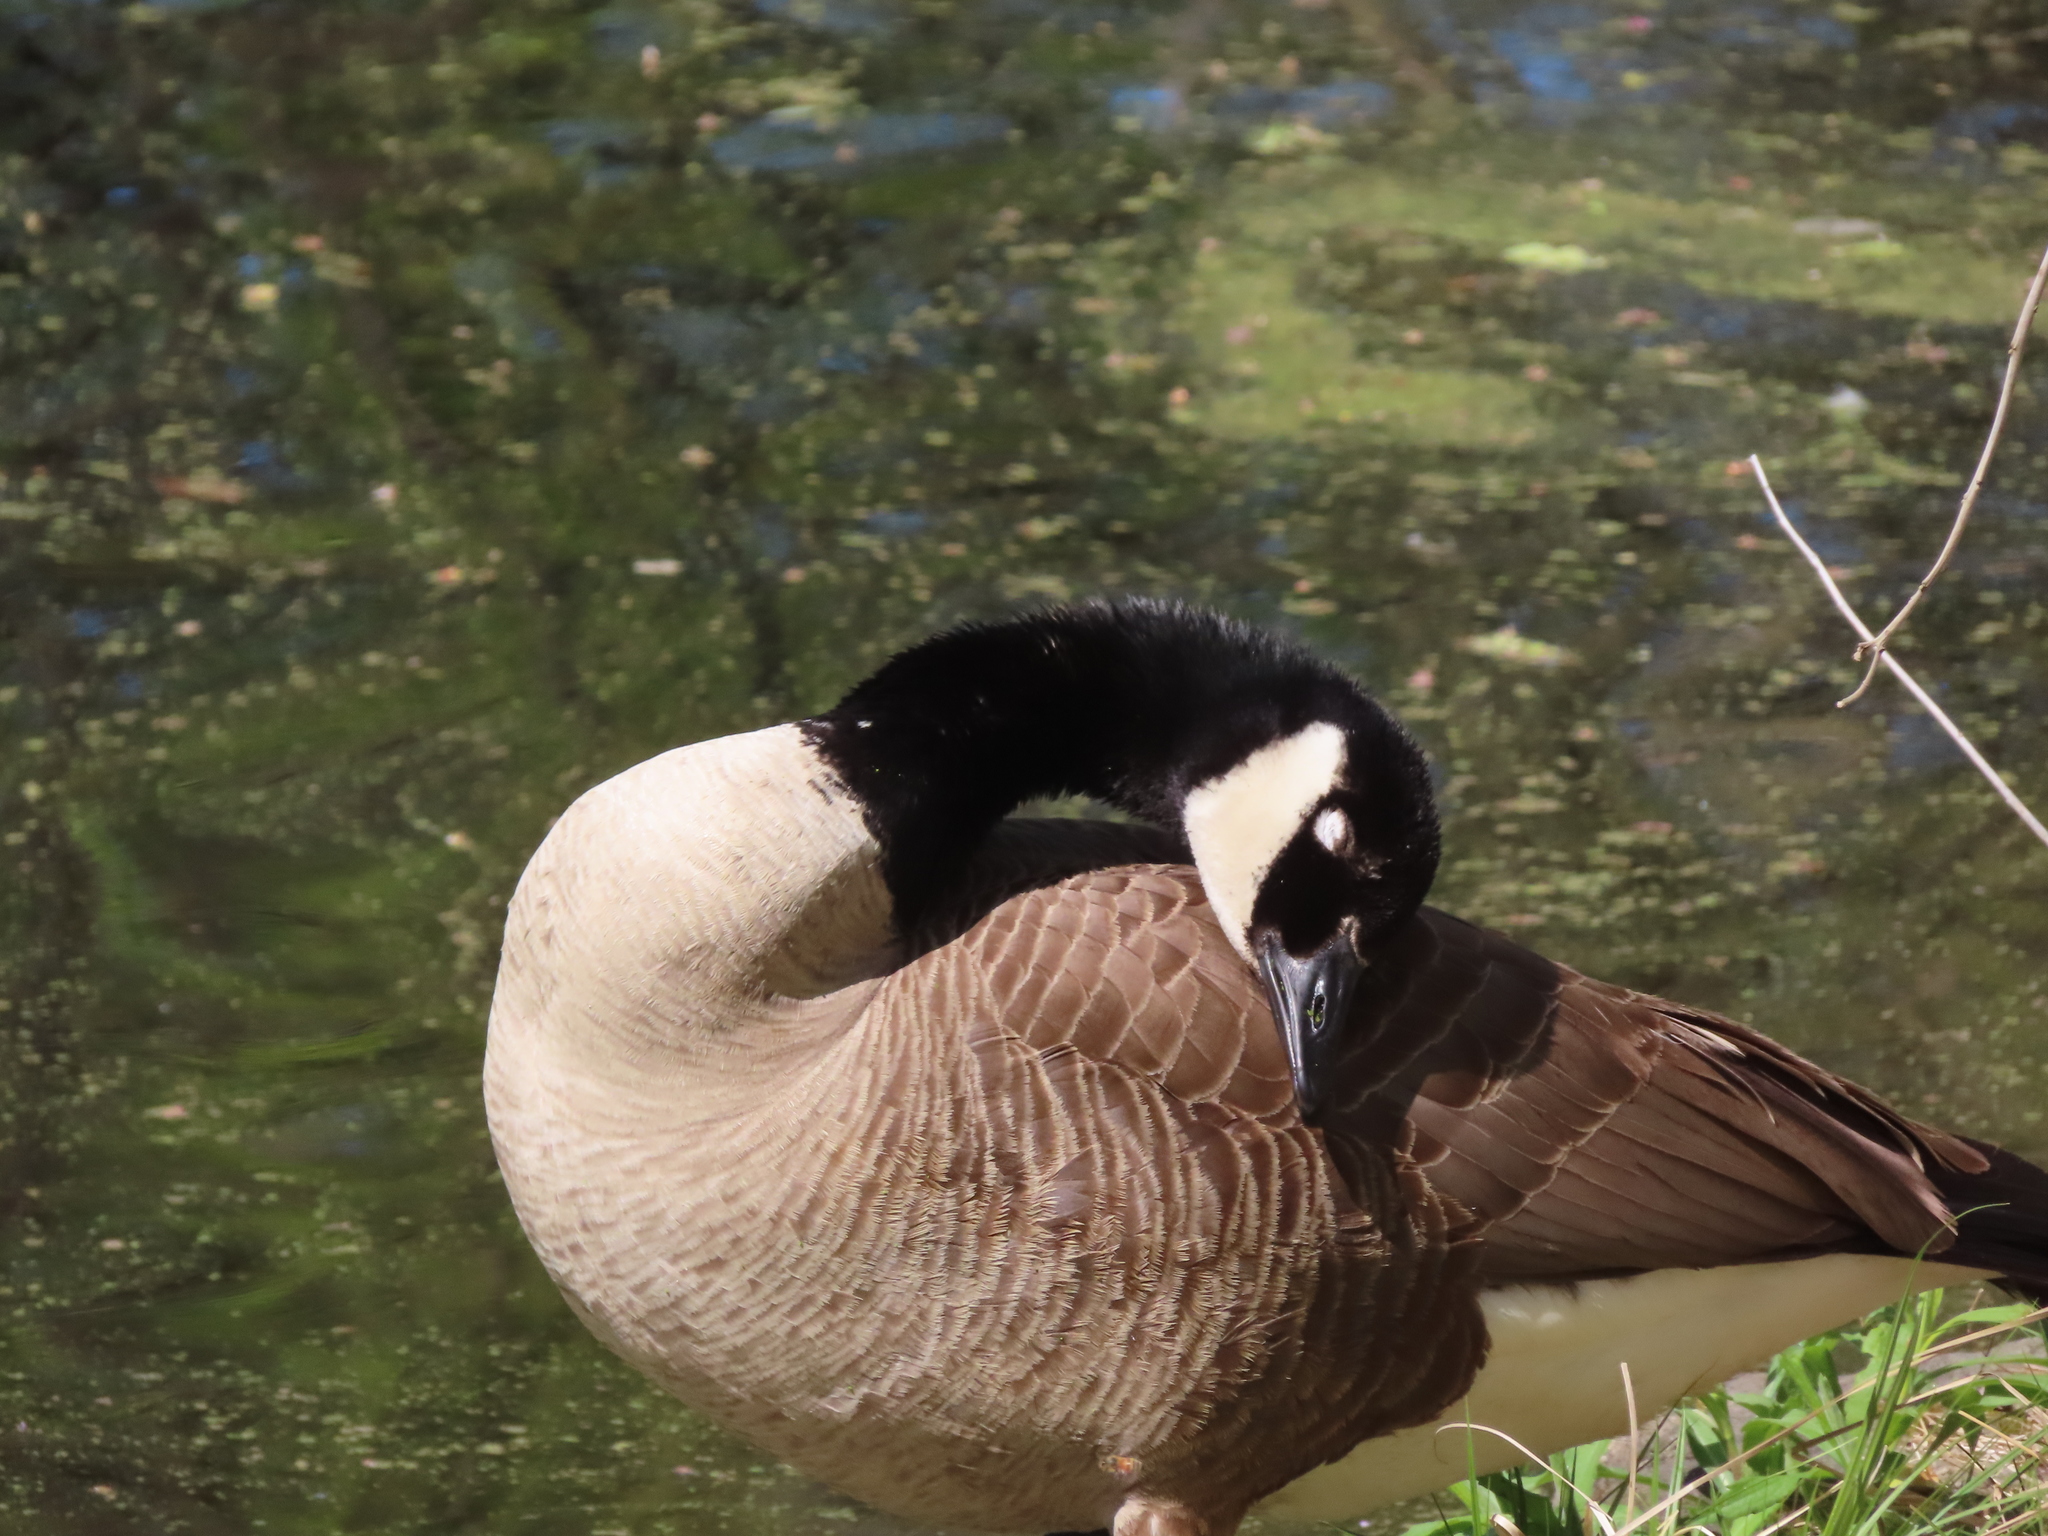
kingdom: Animalia
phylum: Chordata
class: Aves
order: Anseriformes
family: Anatidae
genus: Branta
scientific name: Branta canadensis
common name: Canada goose
